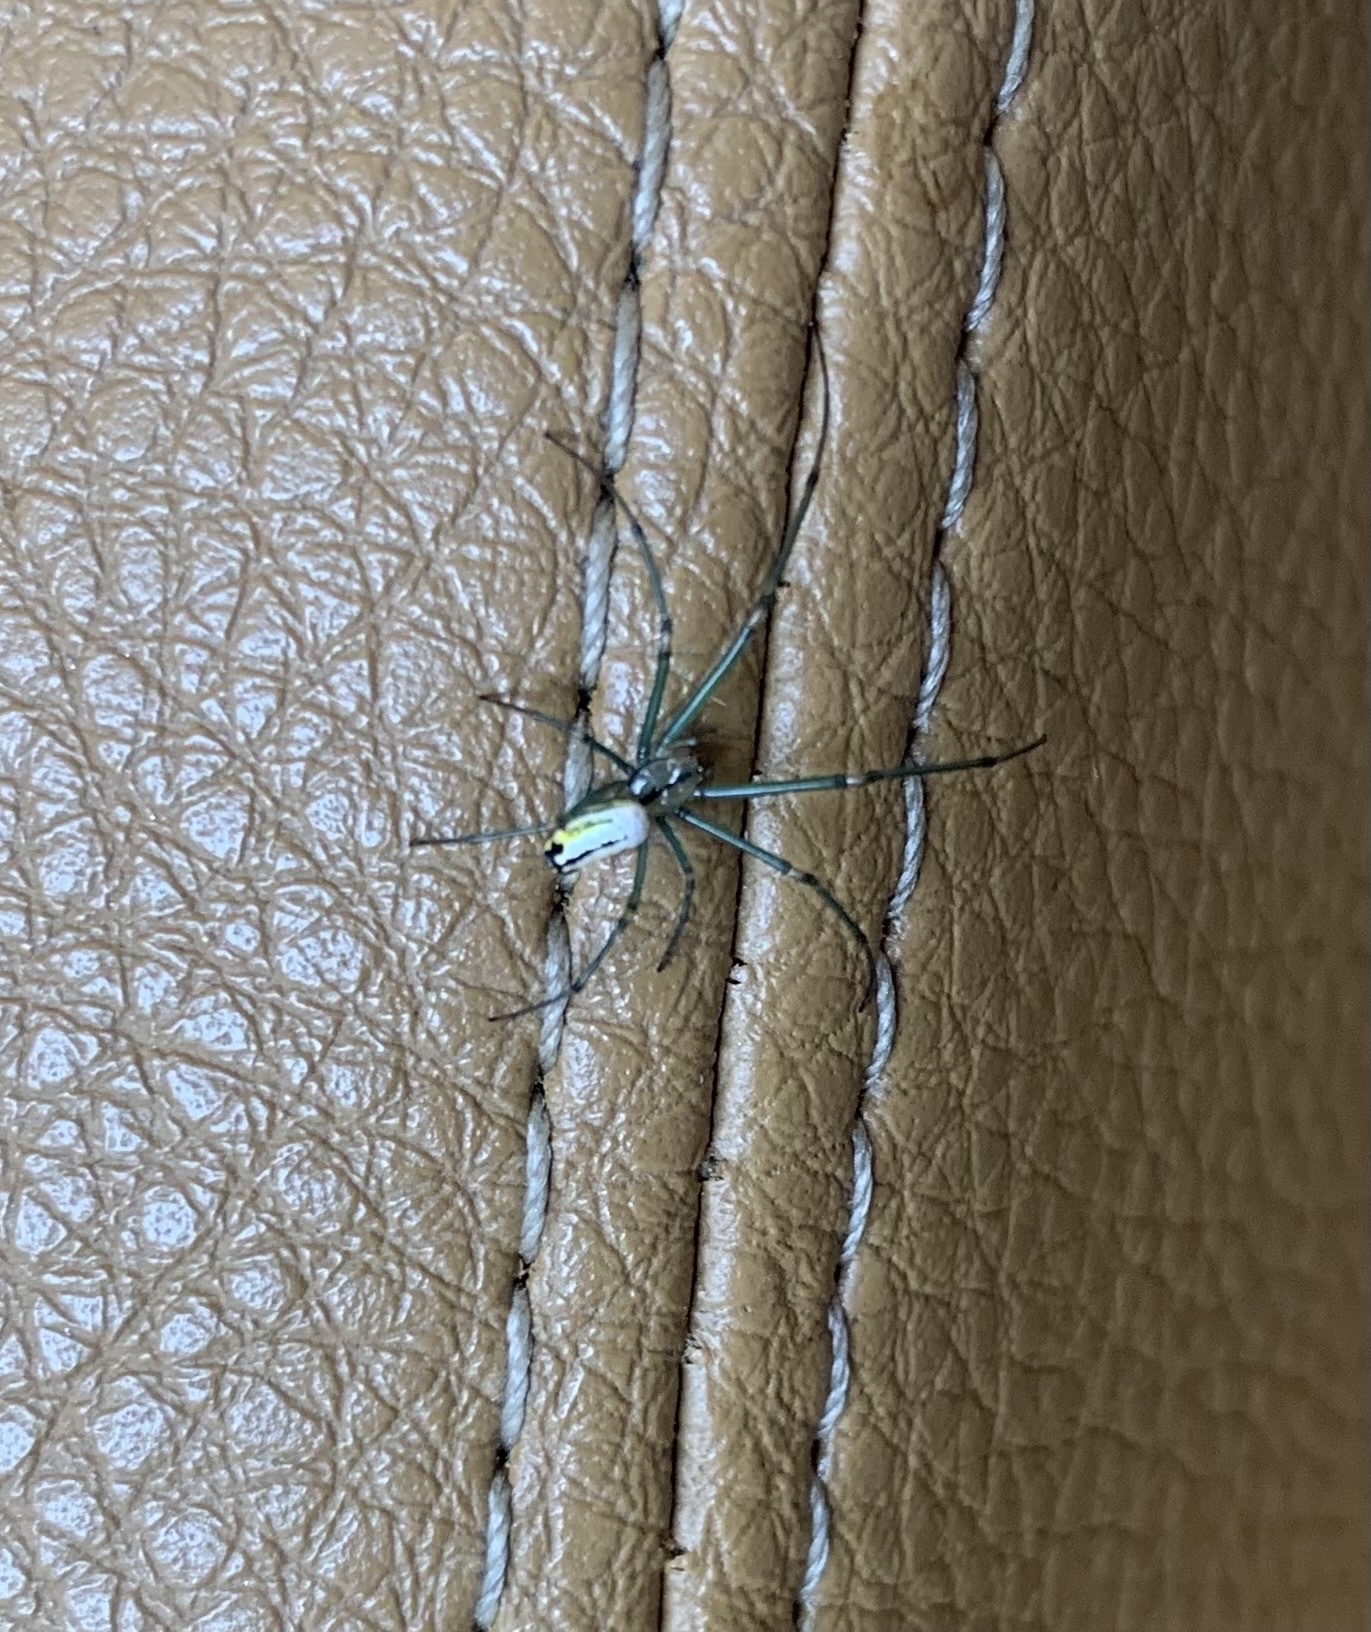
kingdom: Animalia
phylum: Arthropoda
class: Arachnida
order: Araneae
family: Tetragnathidae
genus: Leucauge
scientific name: Leucauge venusta
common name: Longjawed orb weavers
